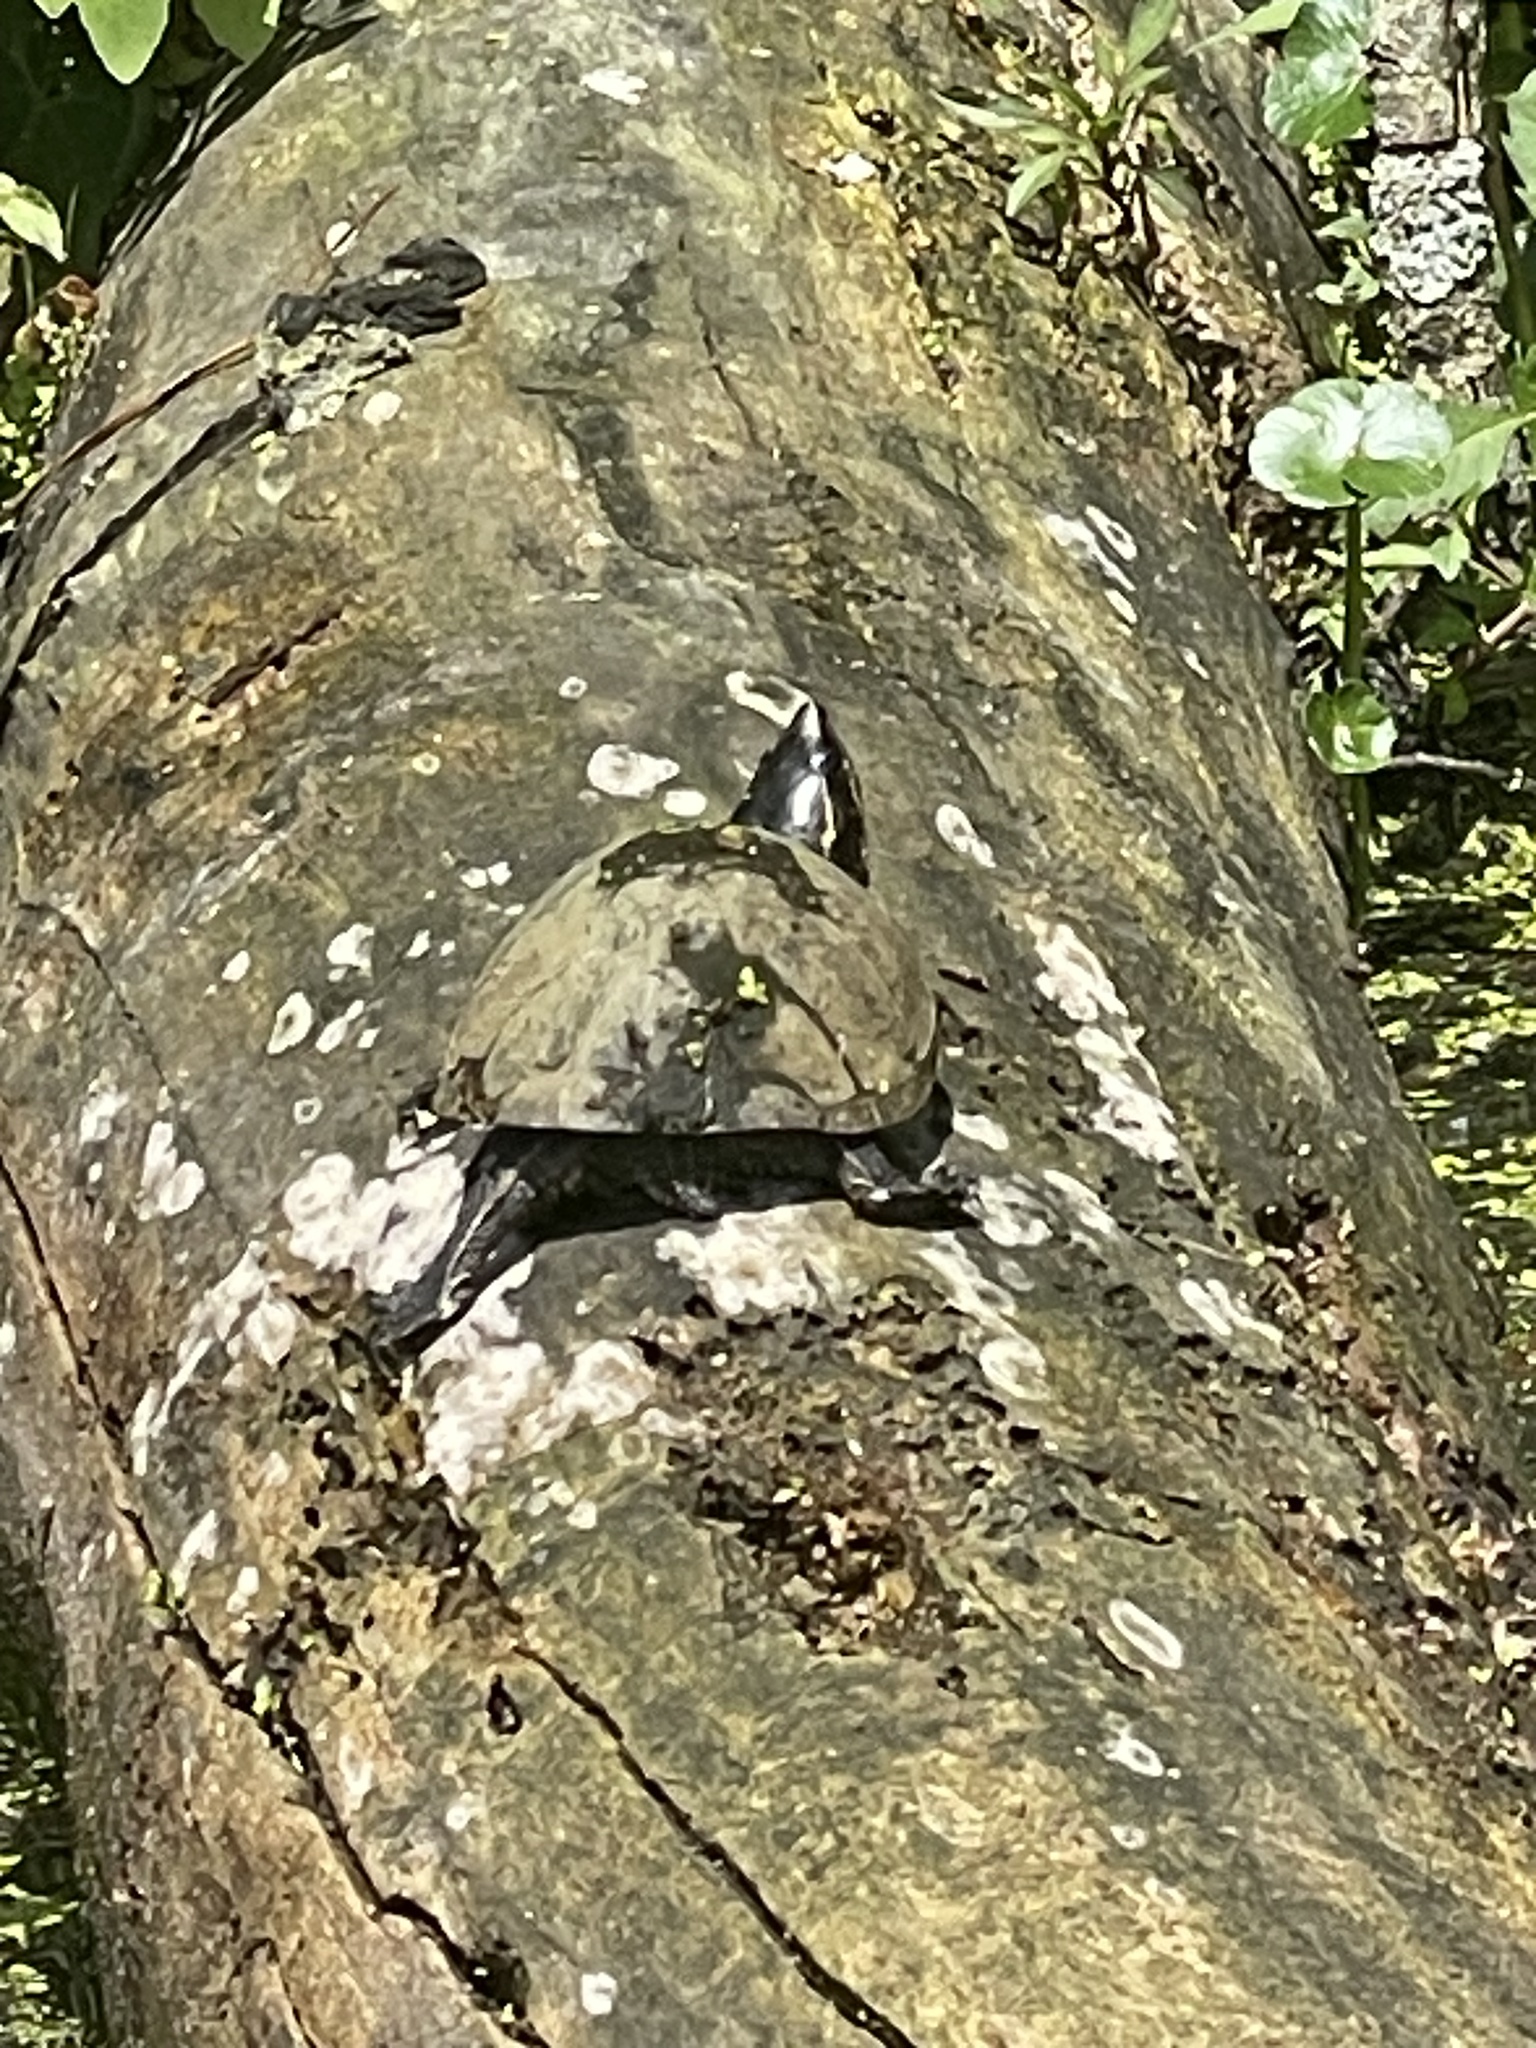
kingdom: Animalia
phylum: Chordata
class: Testudines
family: Kinosternidae
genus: Sternotherus
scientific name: Sternotherus odoratus
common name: Common musk turtle
